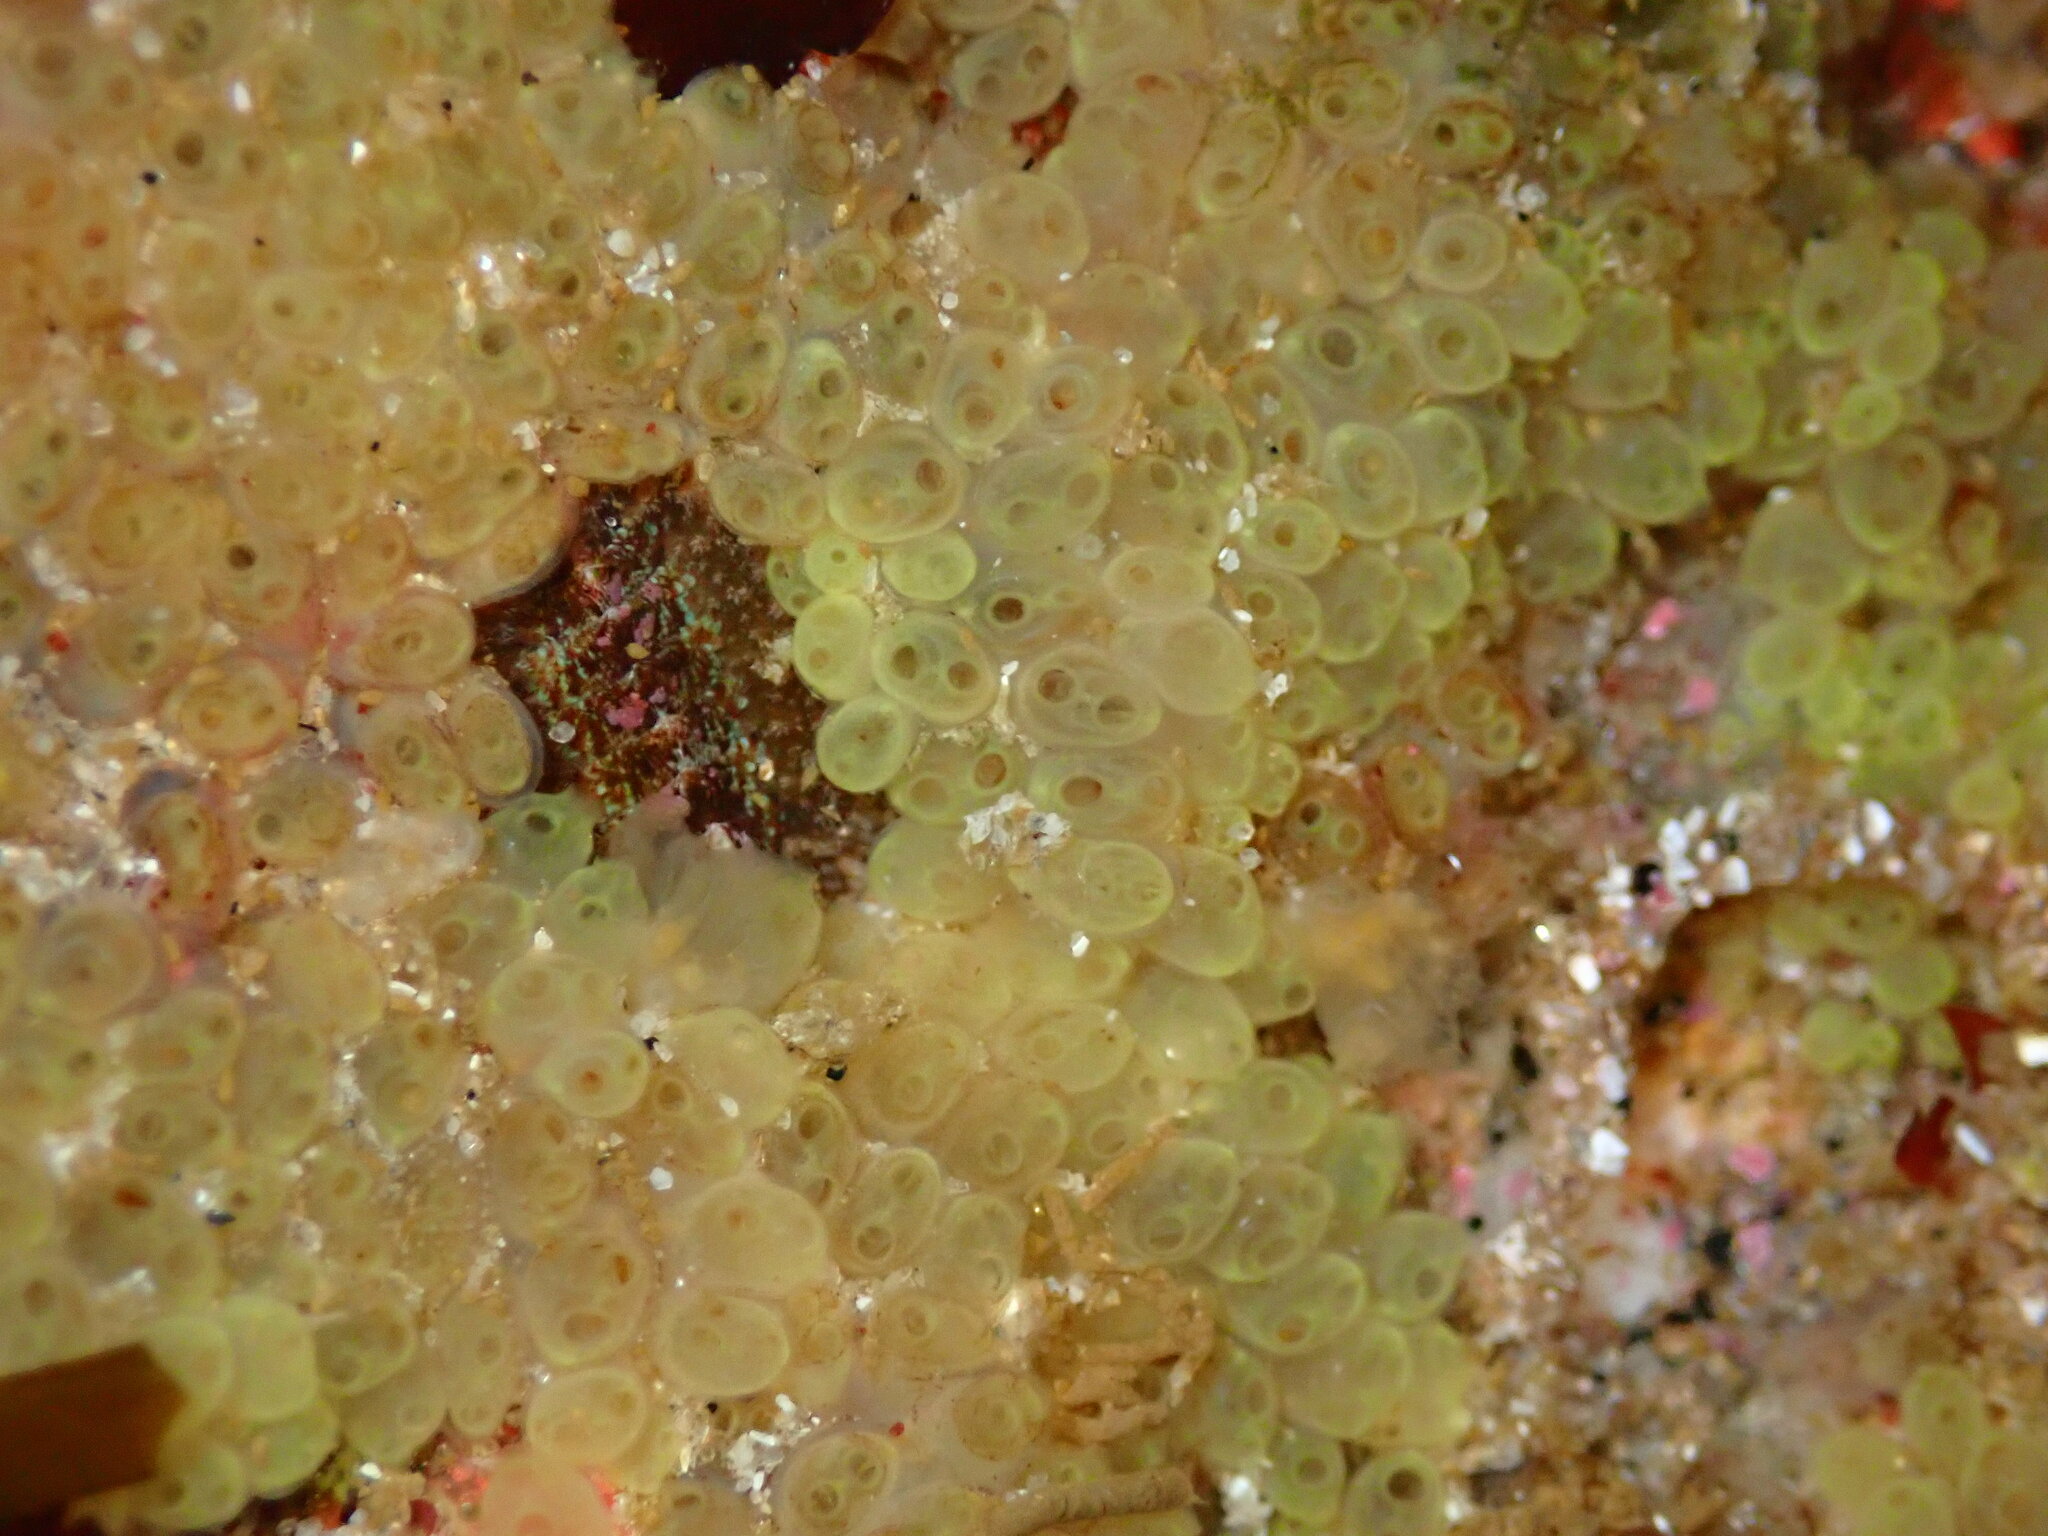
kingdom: Animalia
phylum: Chordata
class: Ascidiacea
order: Phlebobranchia
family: Perophoridae
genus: Perophora
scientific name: Perophora annectens
